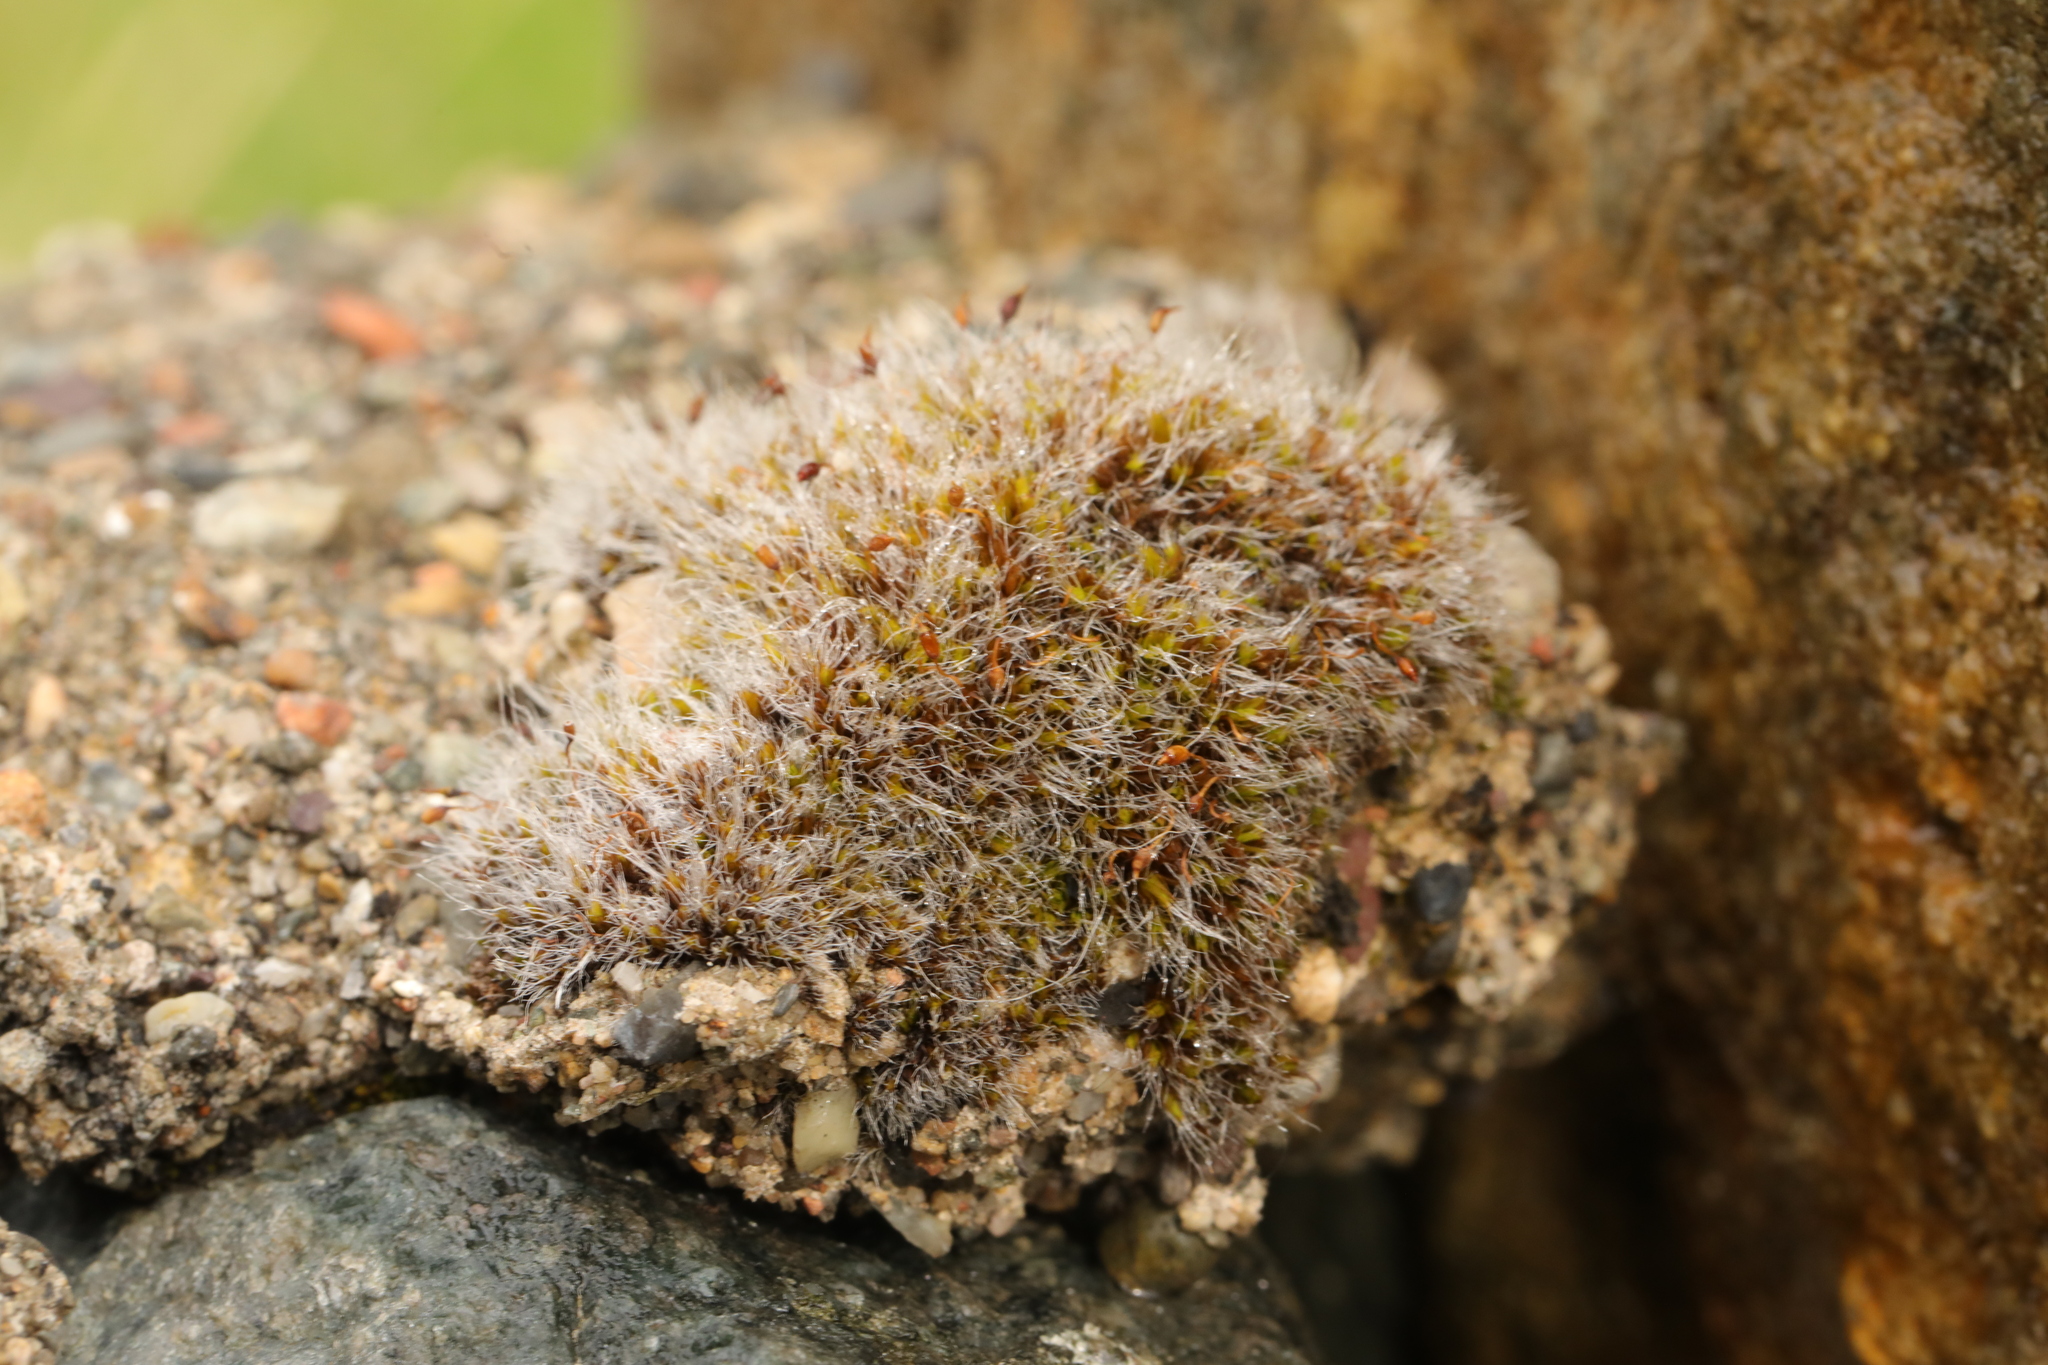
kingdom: Plantae
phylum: Bryophyta
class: Bryopsida
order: Grimmiales
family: Grimmiaceae
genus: Grimmia
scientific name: Grimmia pulvinata
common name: Grey-cushioned grimmia
